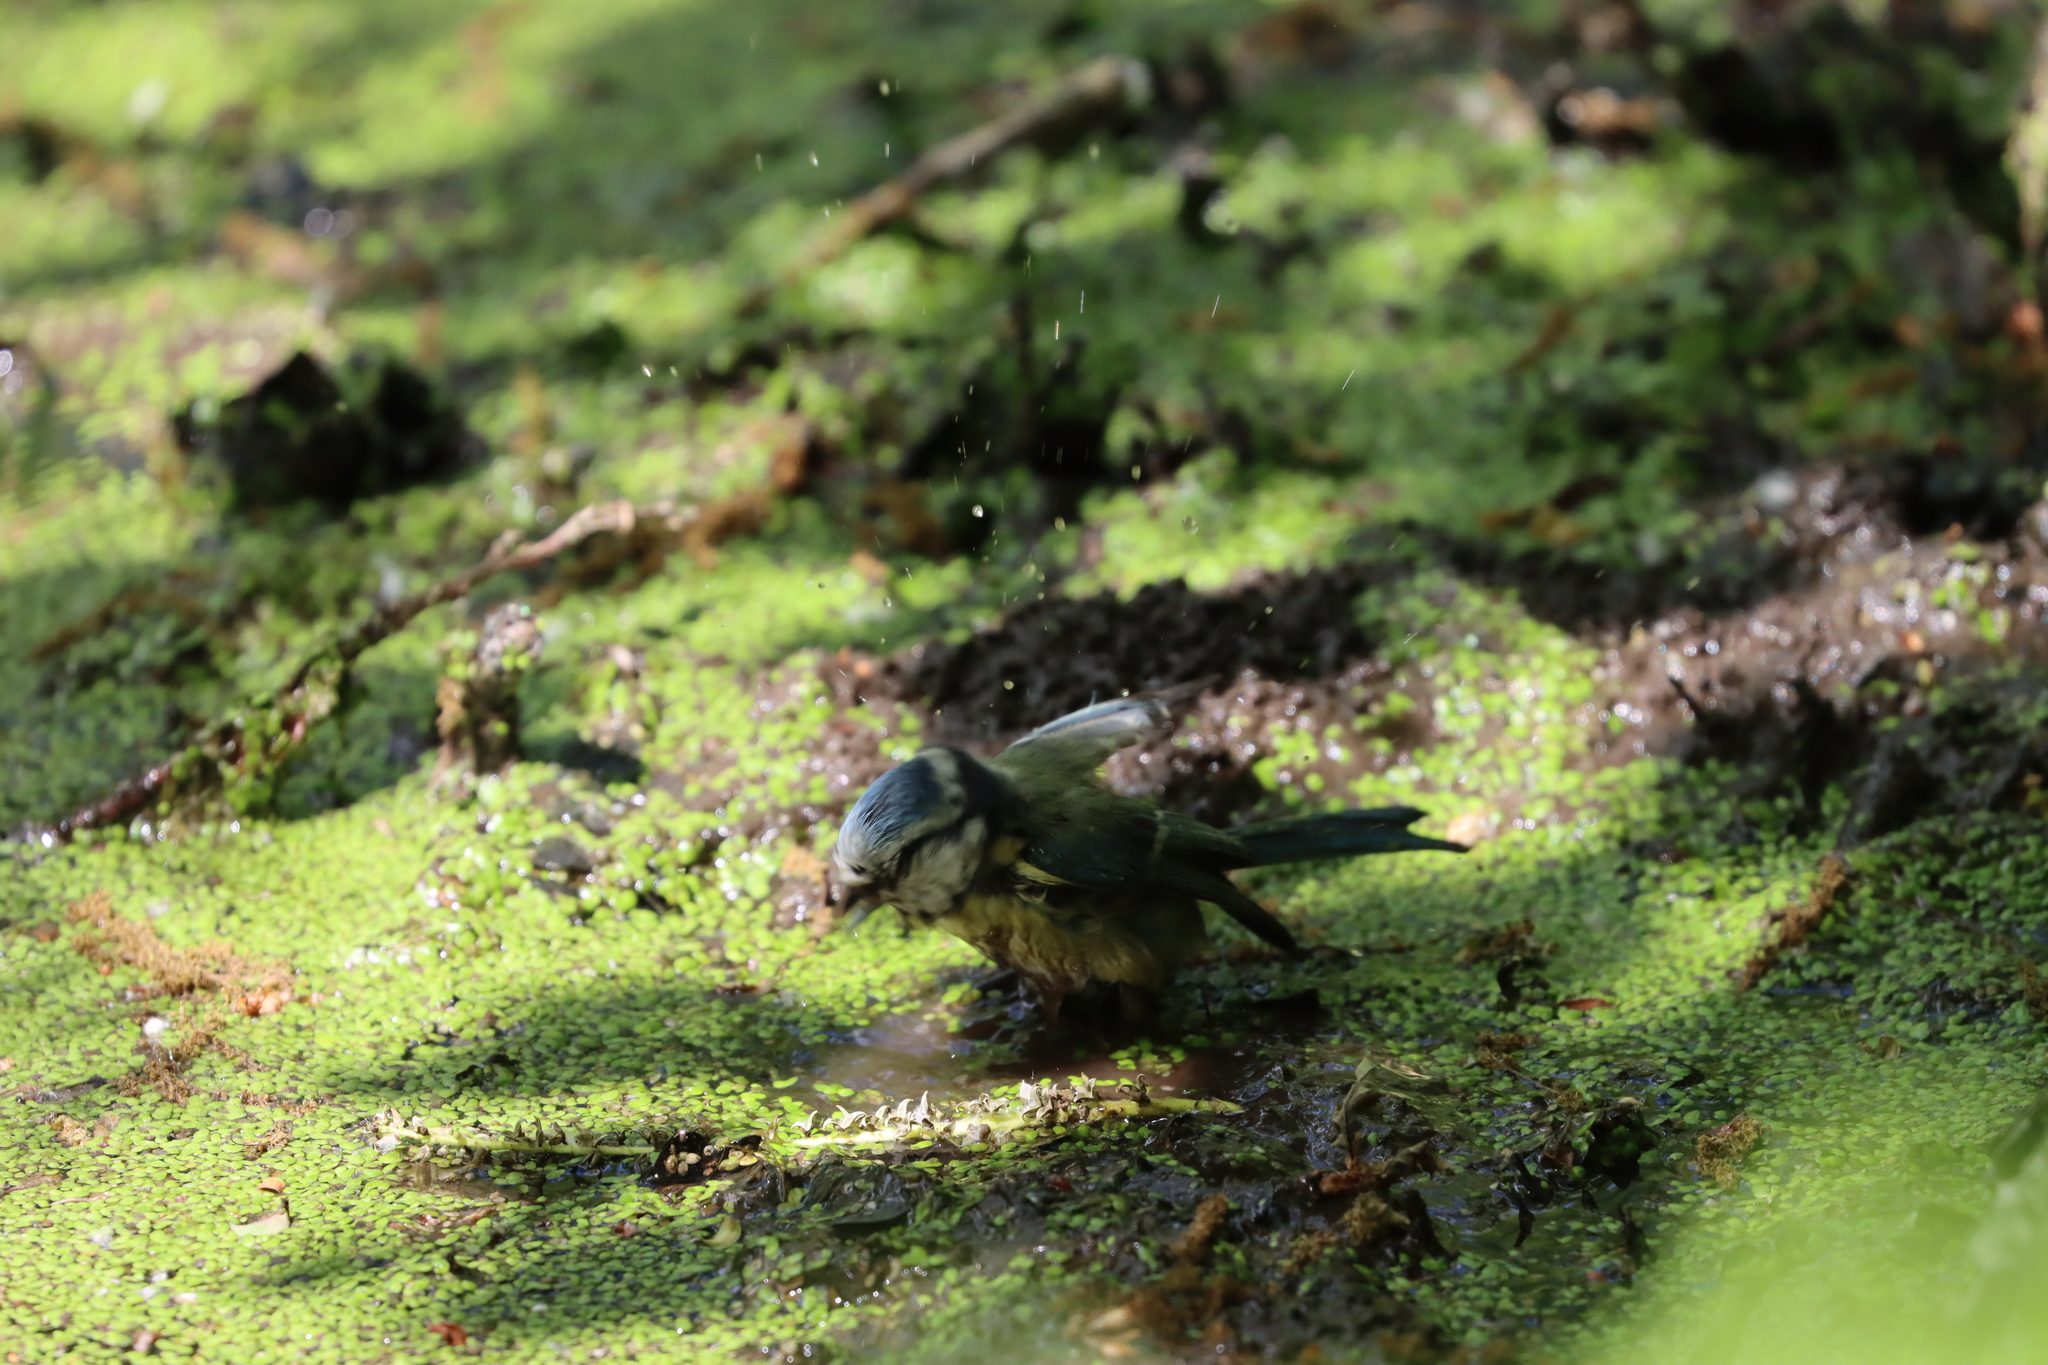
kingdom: Animalia
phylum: Chordata
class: Aves
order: Passeriformes
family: Paridae
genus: Cyanistes
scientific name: Cyanistes caeruleus
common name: Eurasian blue tit
